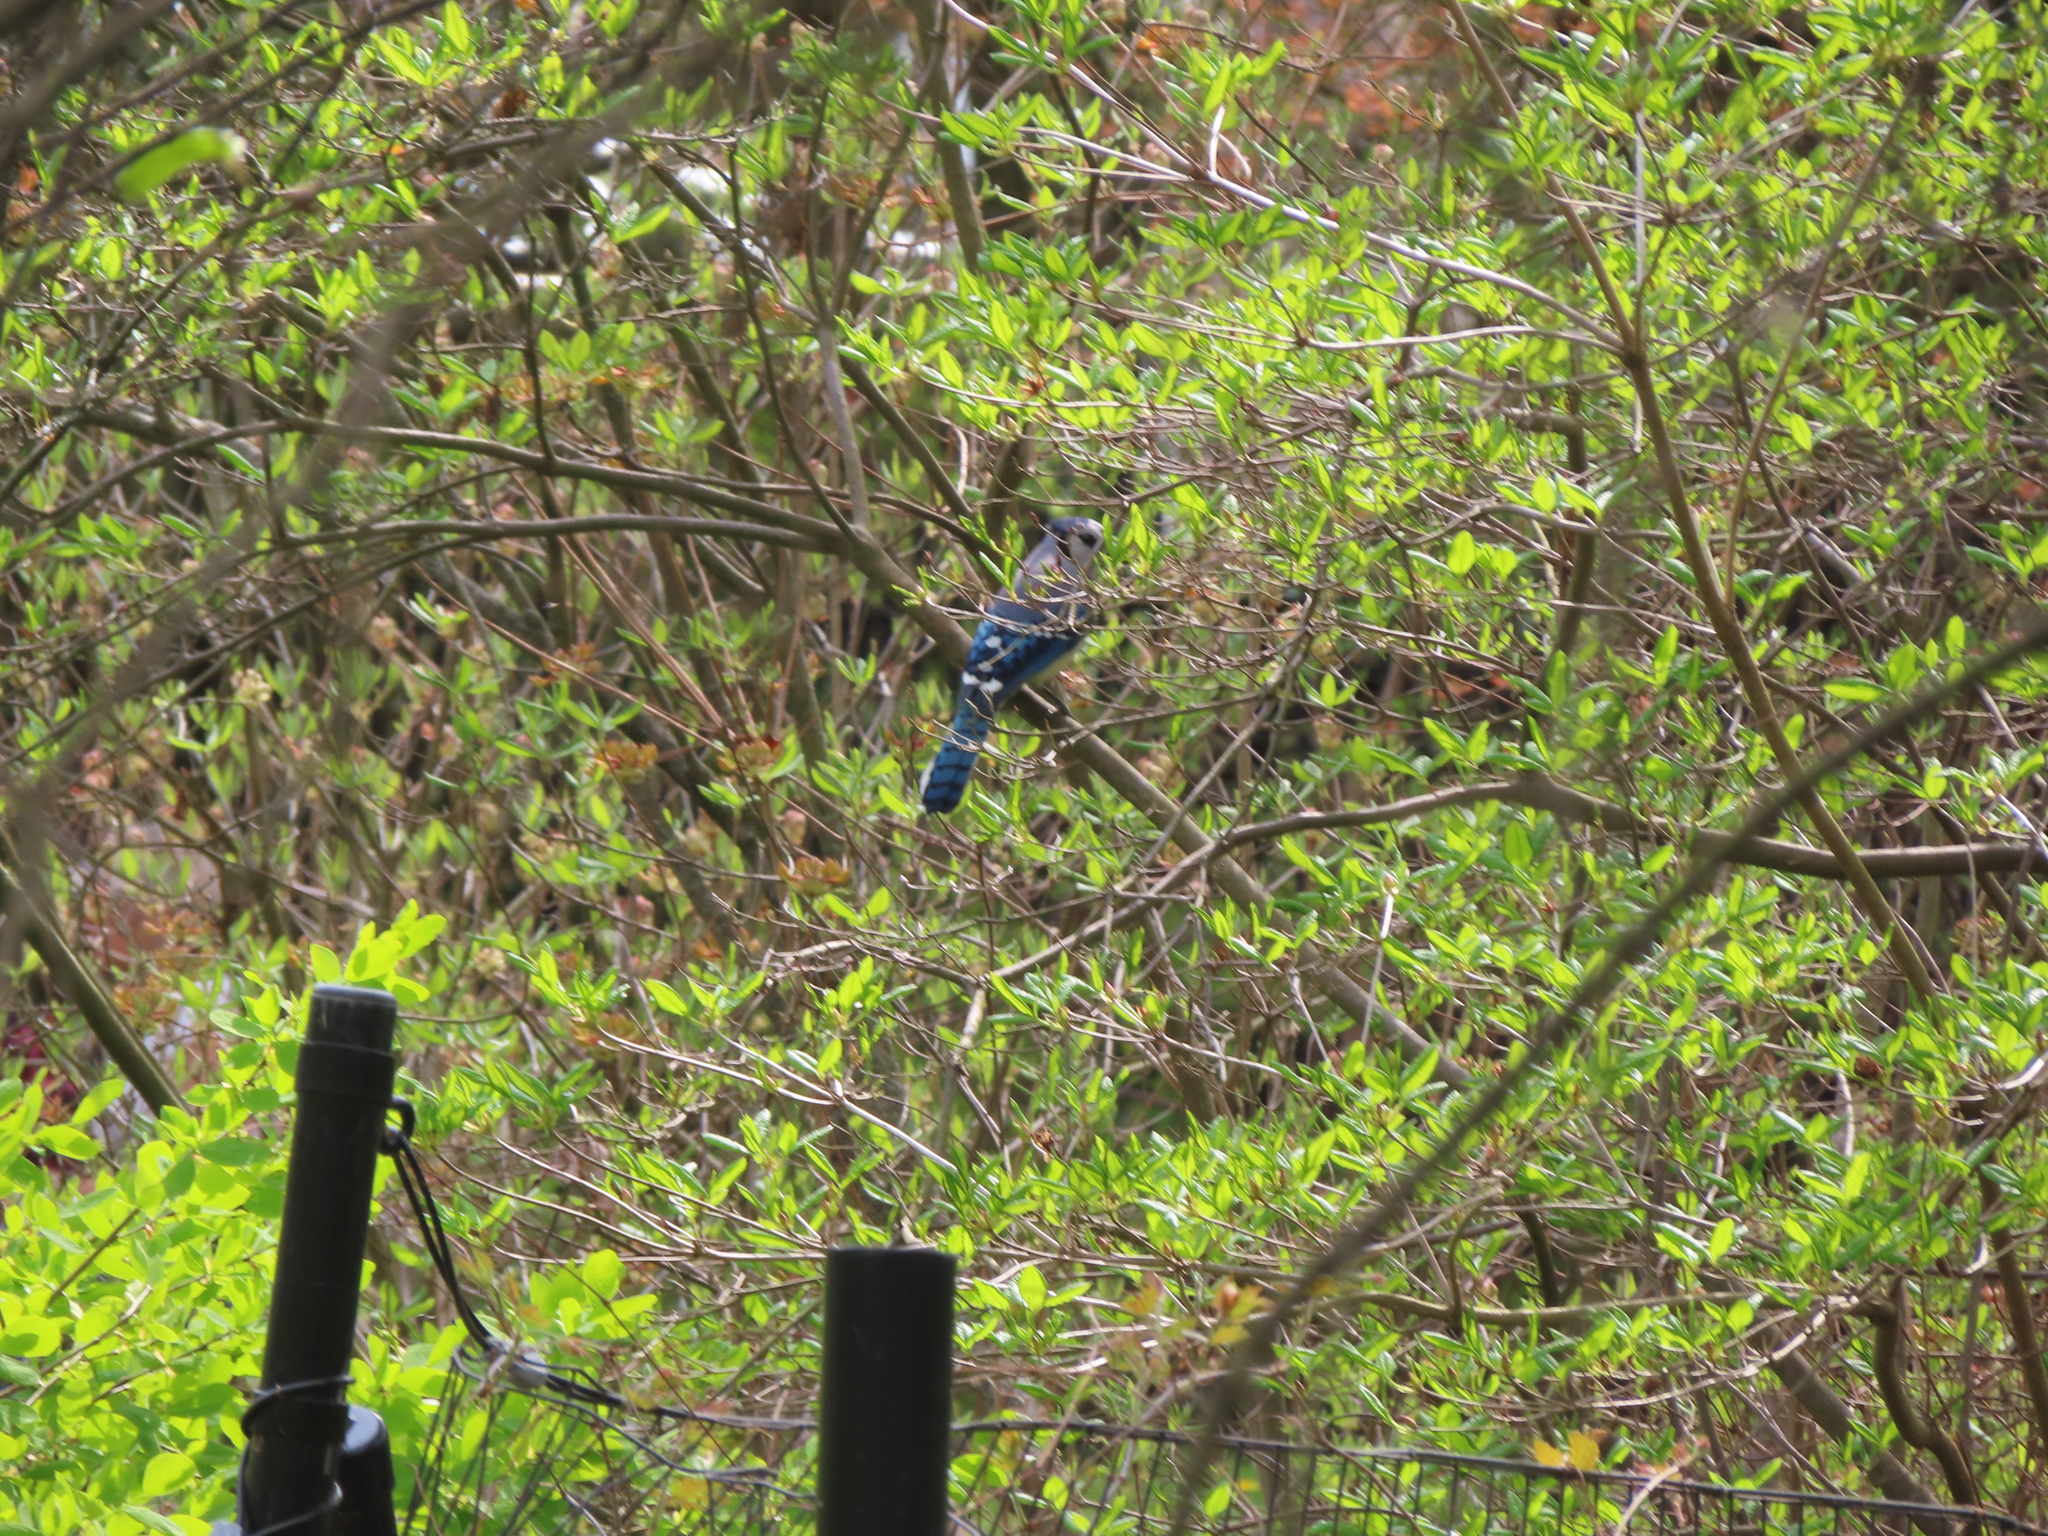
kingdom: Animalia
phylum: Chordata
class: Aves
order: Passeriformes
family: Corvidae
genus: Cyanocitta
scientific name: Cyanocitta cristata
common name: Blue jay
